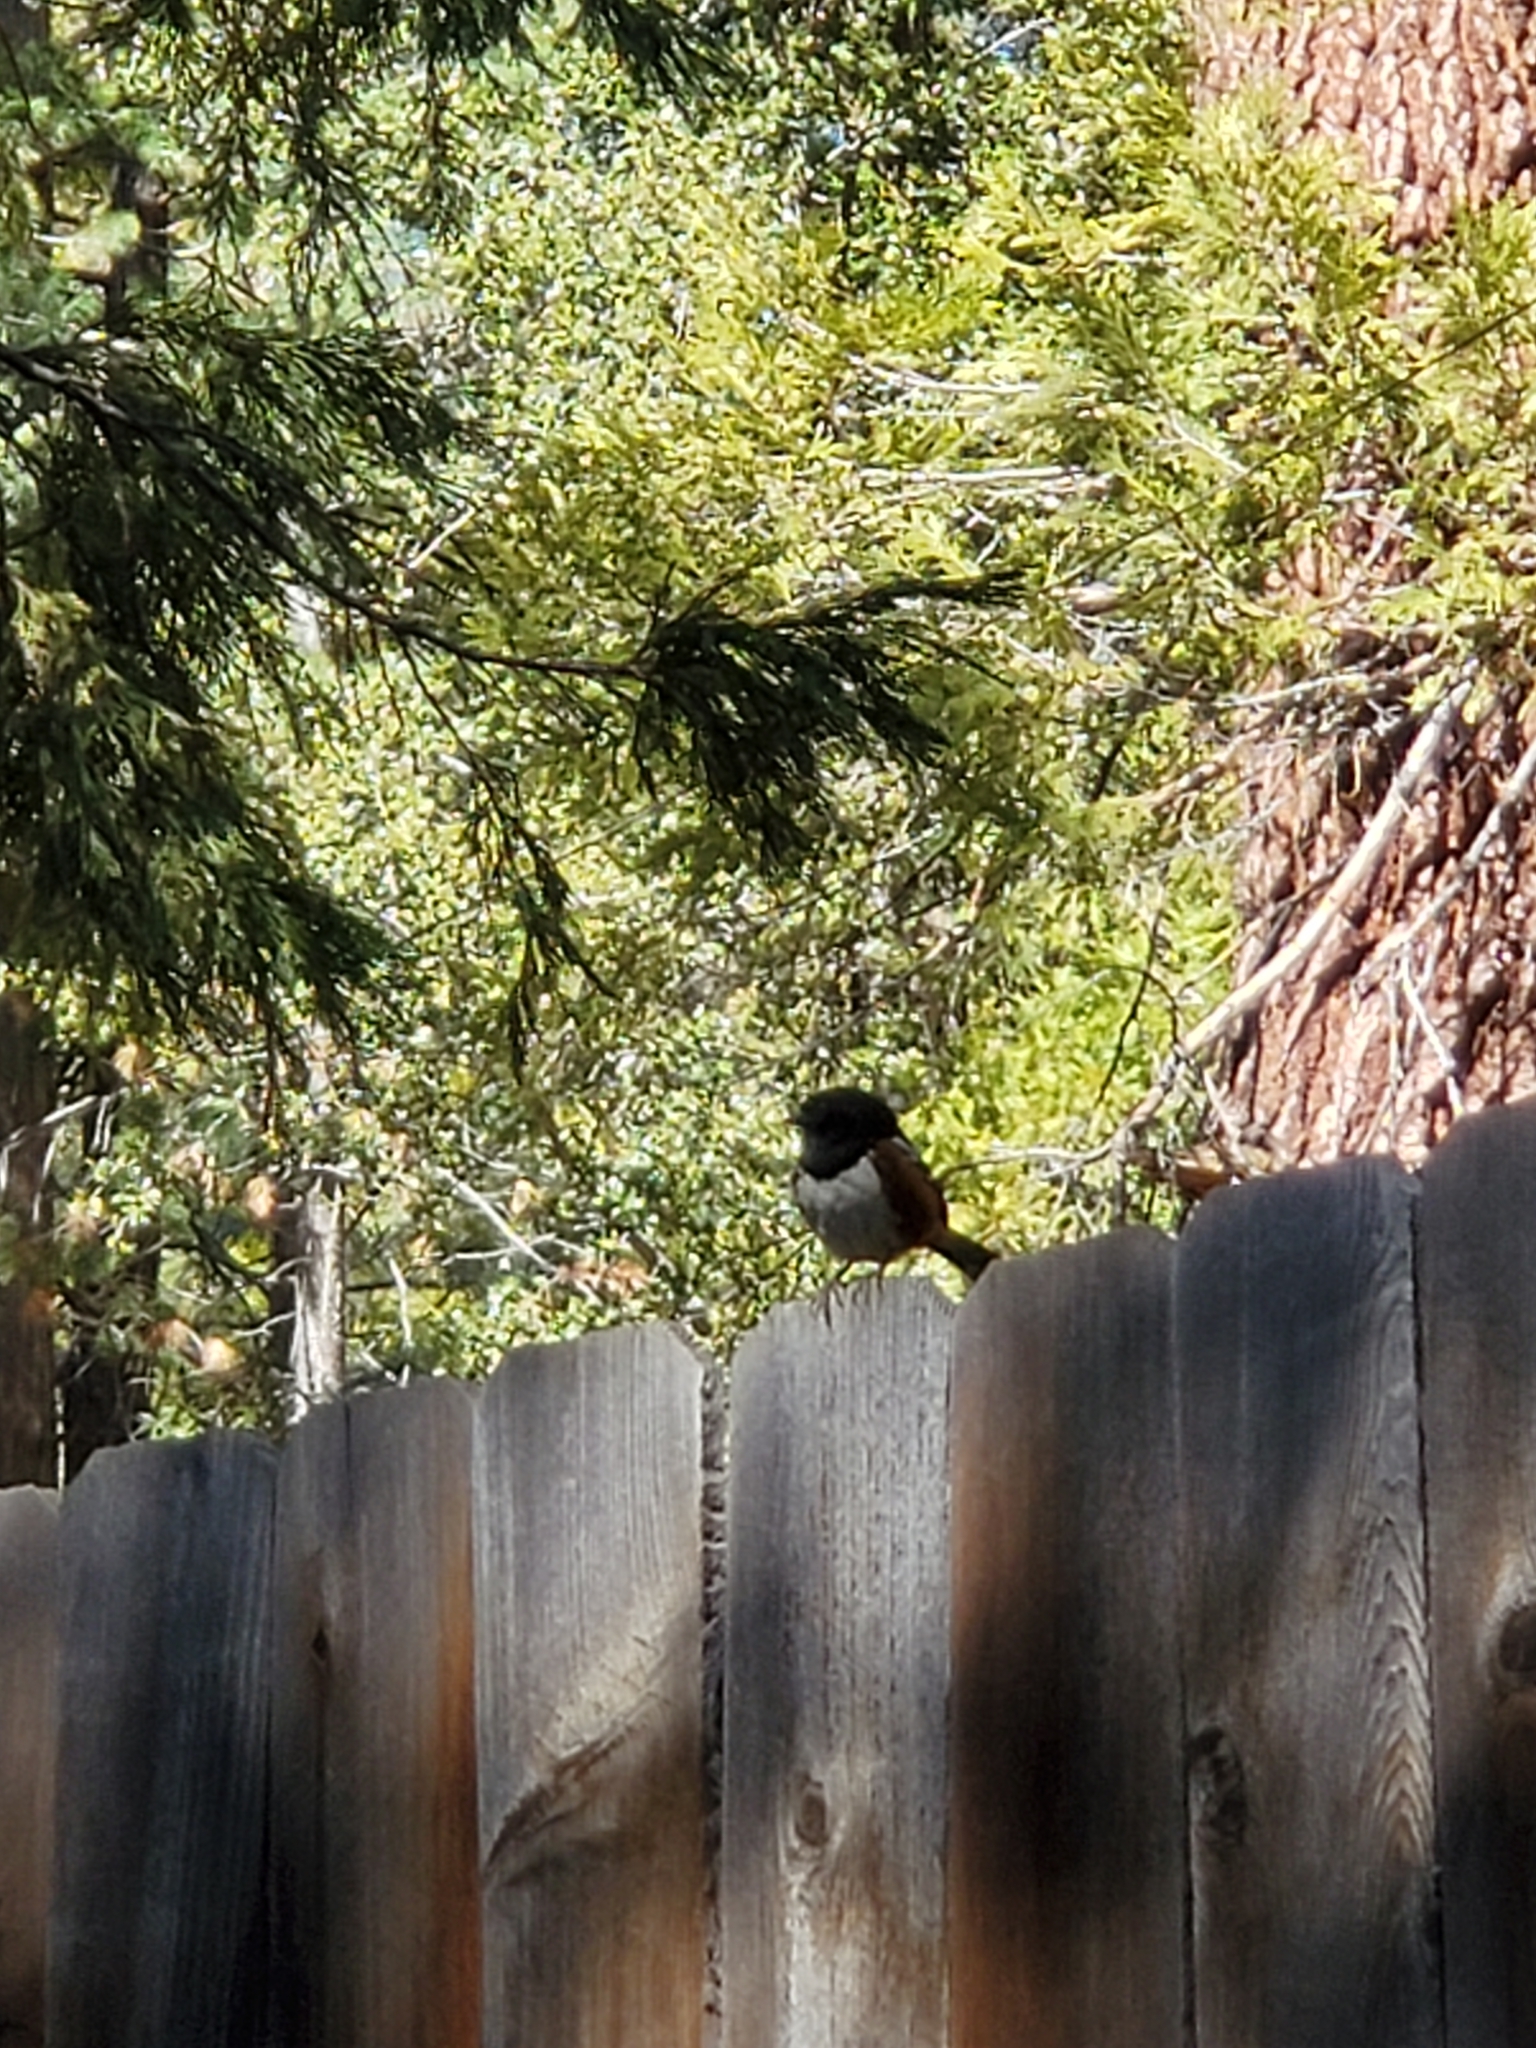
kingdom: Animalia
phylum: Chordata
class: Aves
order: Passeriformes
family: Passerellidae
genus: Pipilo
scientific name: Pipilo maculatus
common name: Spotted towhee
